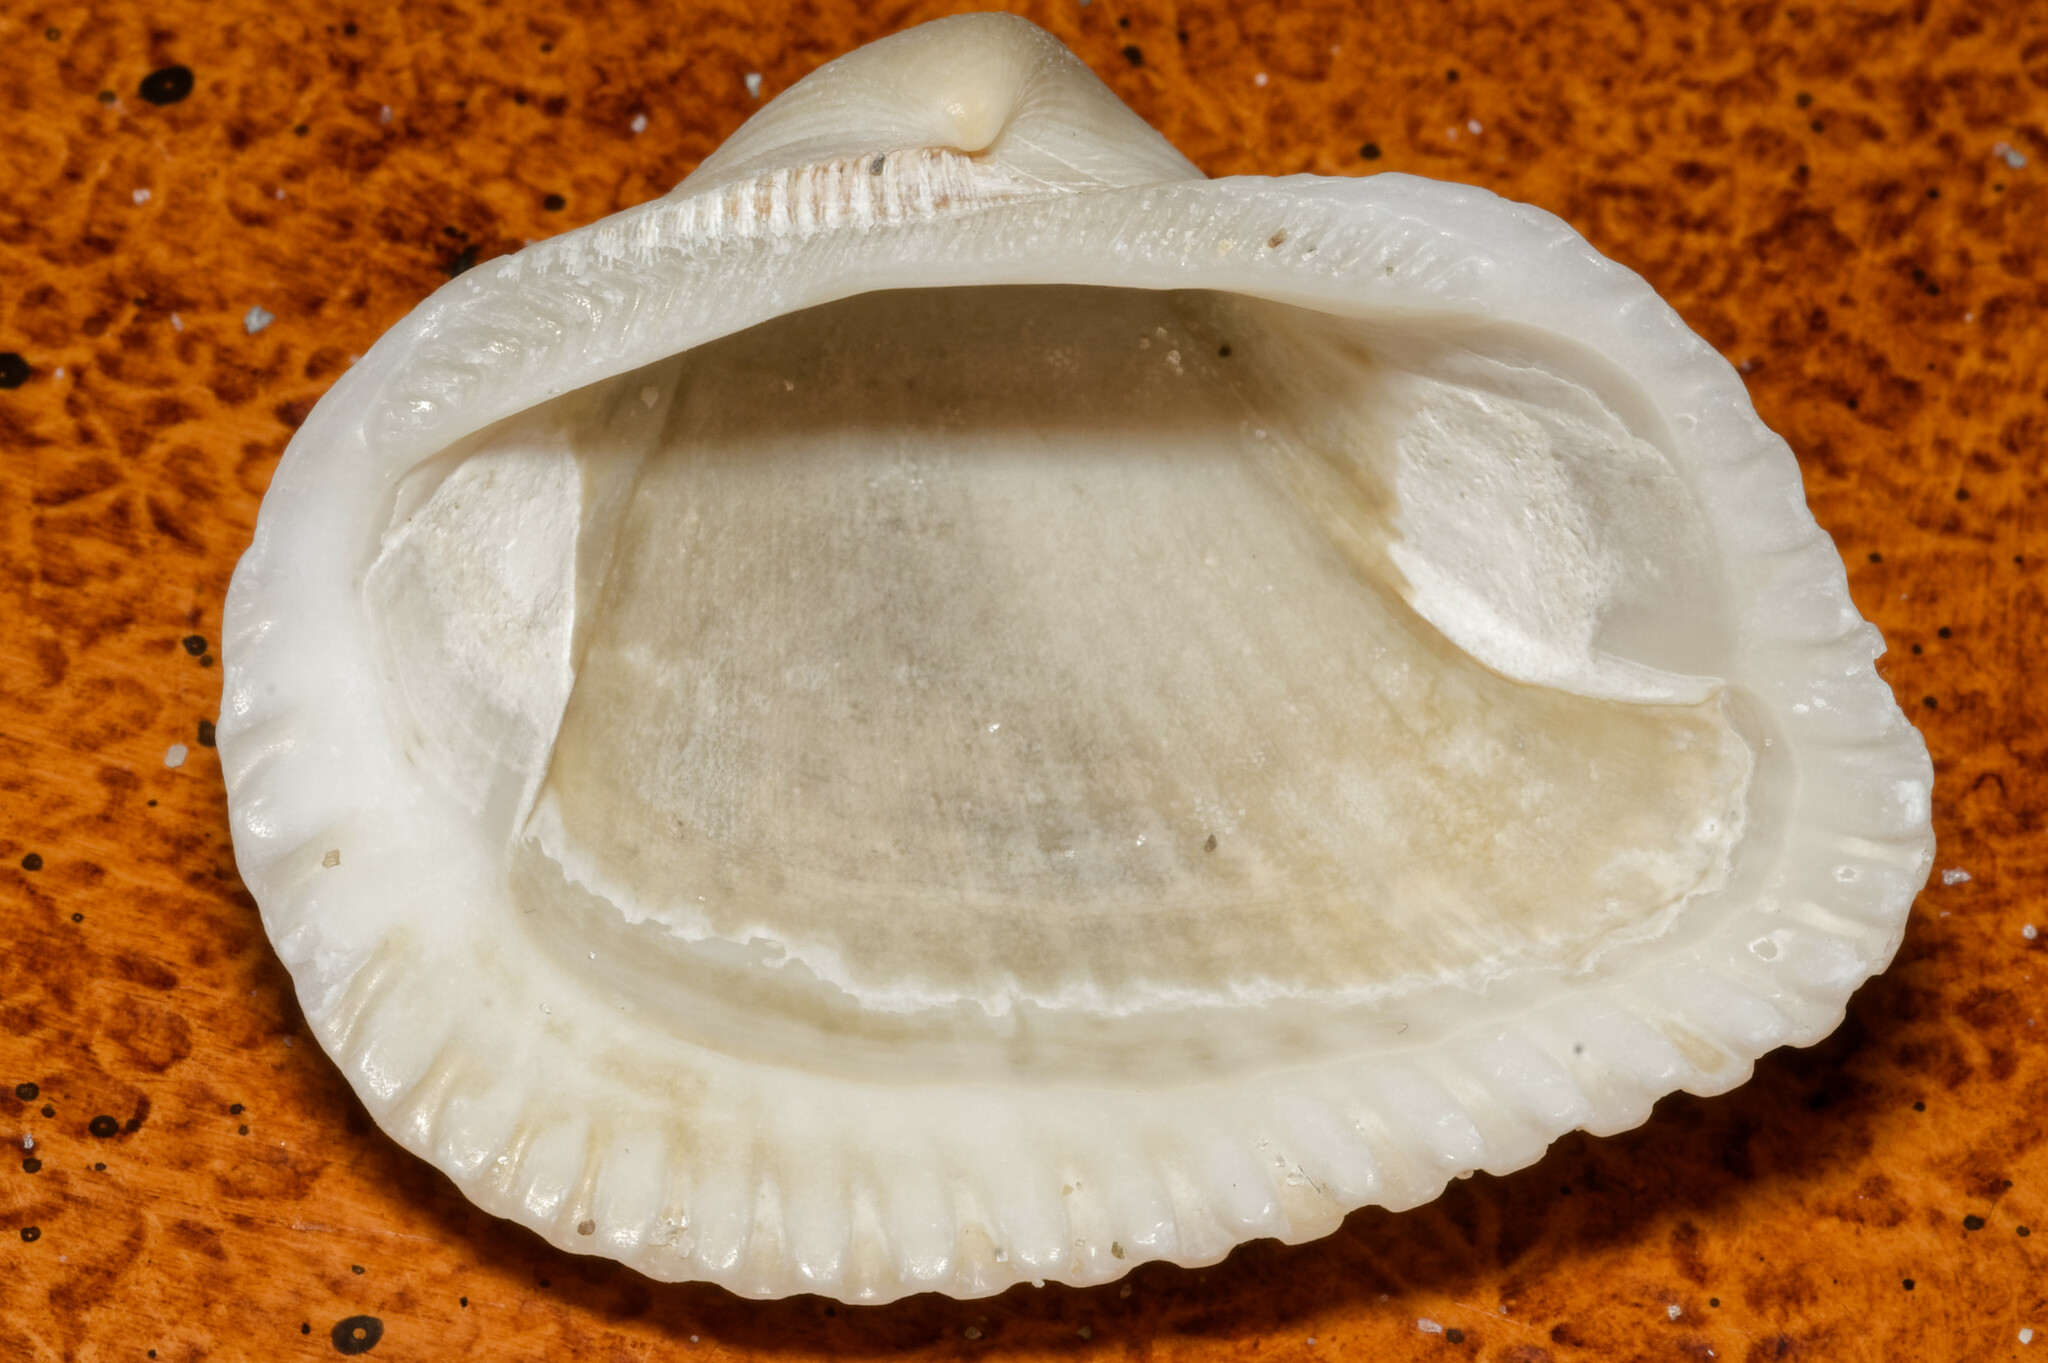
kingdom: Animalia
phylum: Mollusca
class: Bivalvia
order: Arcida
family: Noetiidae
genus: Noetia
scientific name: Noetia ponderosa
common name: Ponderous ark
